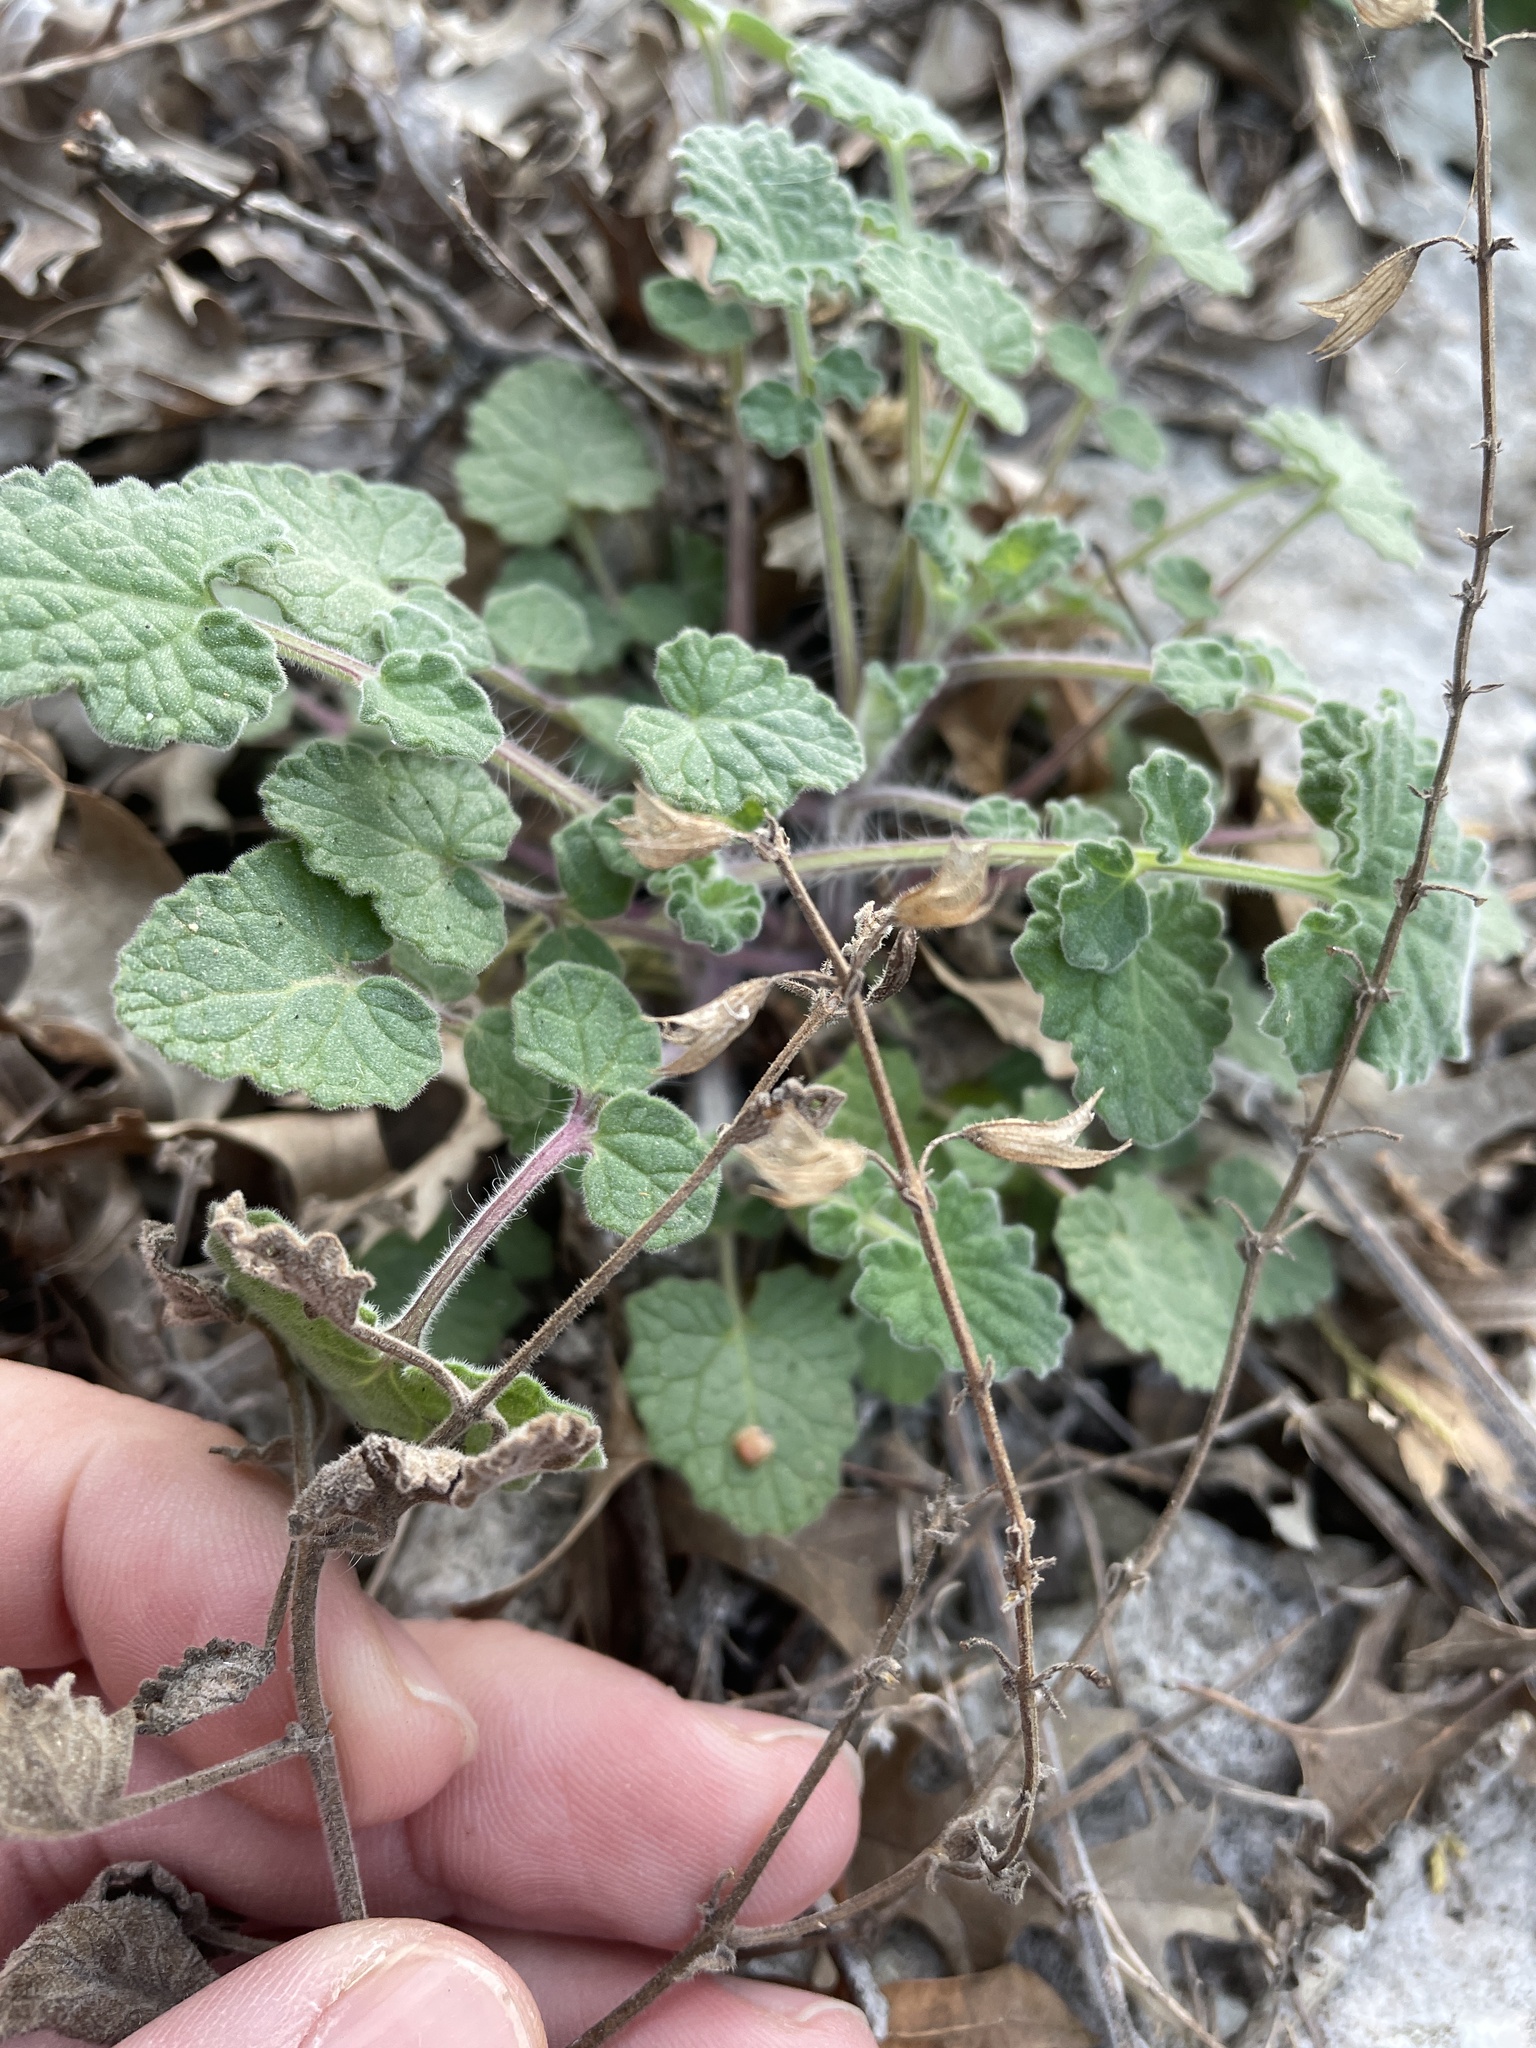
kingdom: Plantae
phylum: Tracheophyta
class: Magnoliopsida
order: Lamiales
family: Lamiaceae
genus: Salvia
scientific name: Salvia roemeriana
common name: Cedar sage
